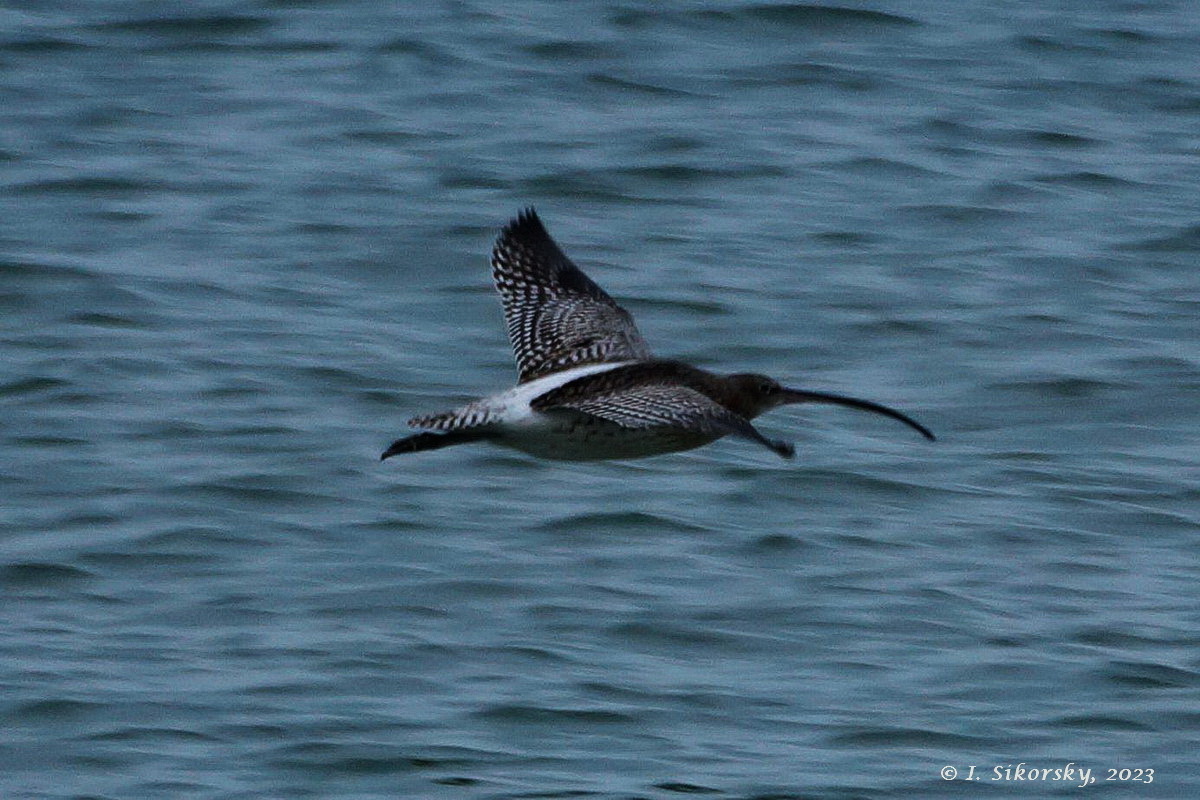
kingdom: Animalia
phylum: Chordata
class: Aves
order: Charadriiformes
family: Scolopacidae
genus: Numenius
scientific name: Numenius arquata
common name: Eurasian curlew
